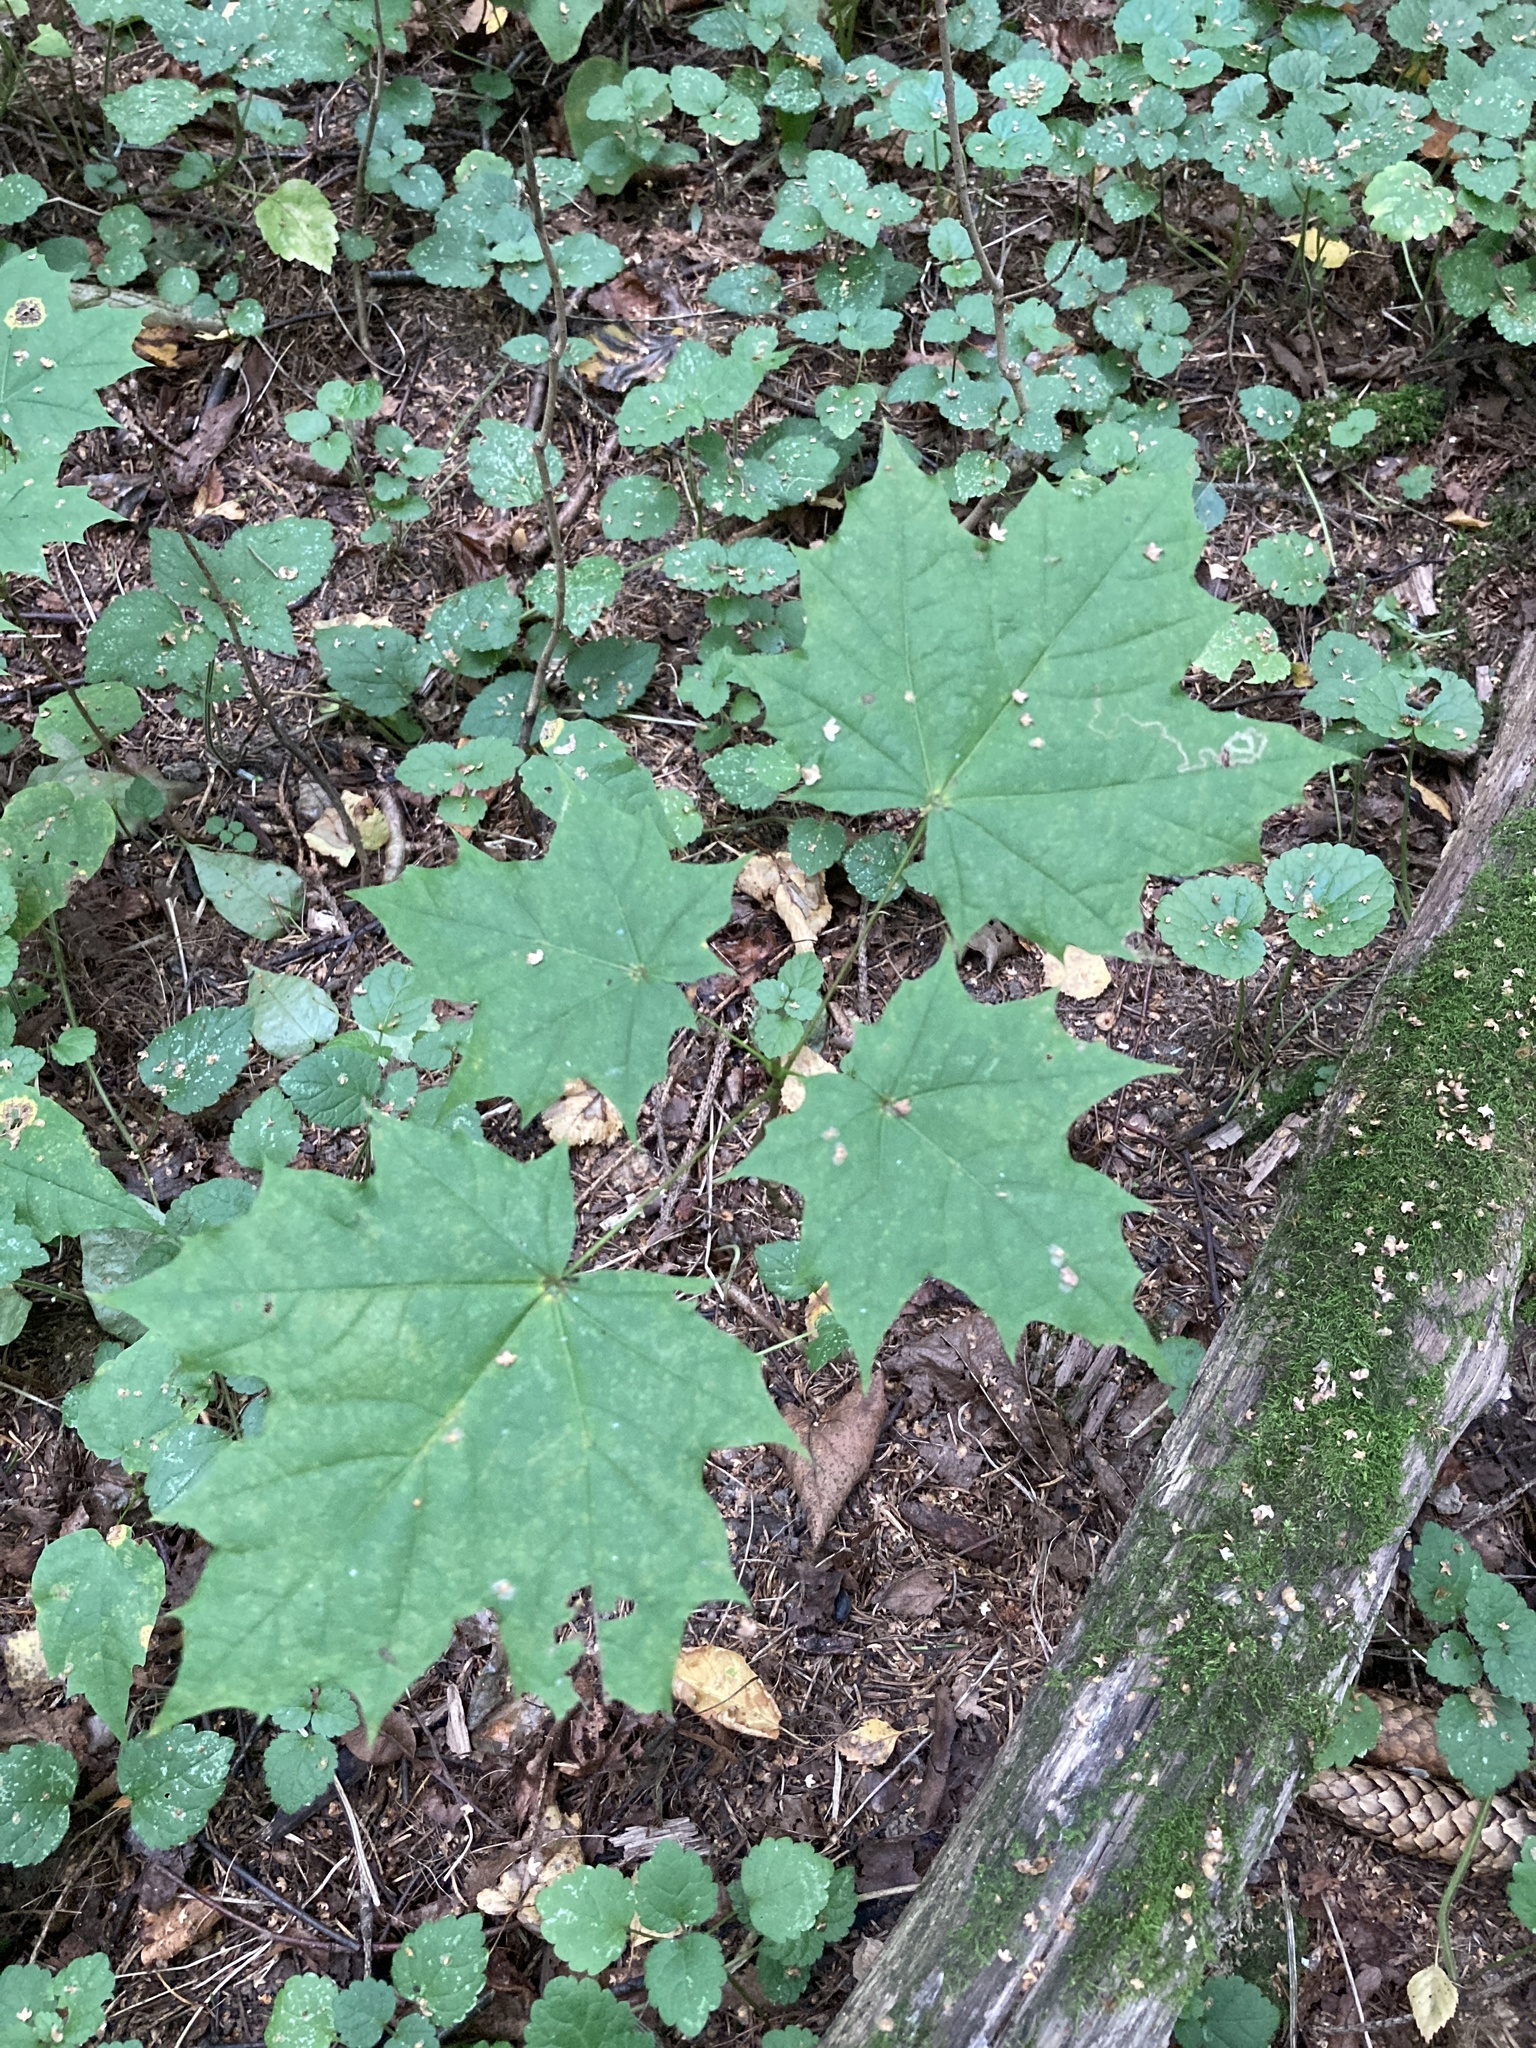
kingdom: Plantae
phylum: Tracheophyta
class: Magnoliopsida
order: Sapindales
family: Sapindaceae
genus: Acer
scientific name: Acer platanoides
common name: Norway maple
